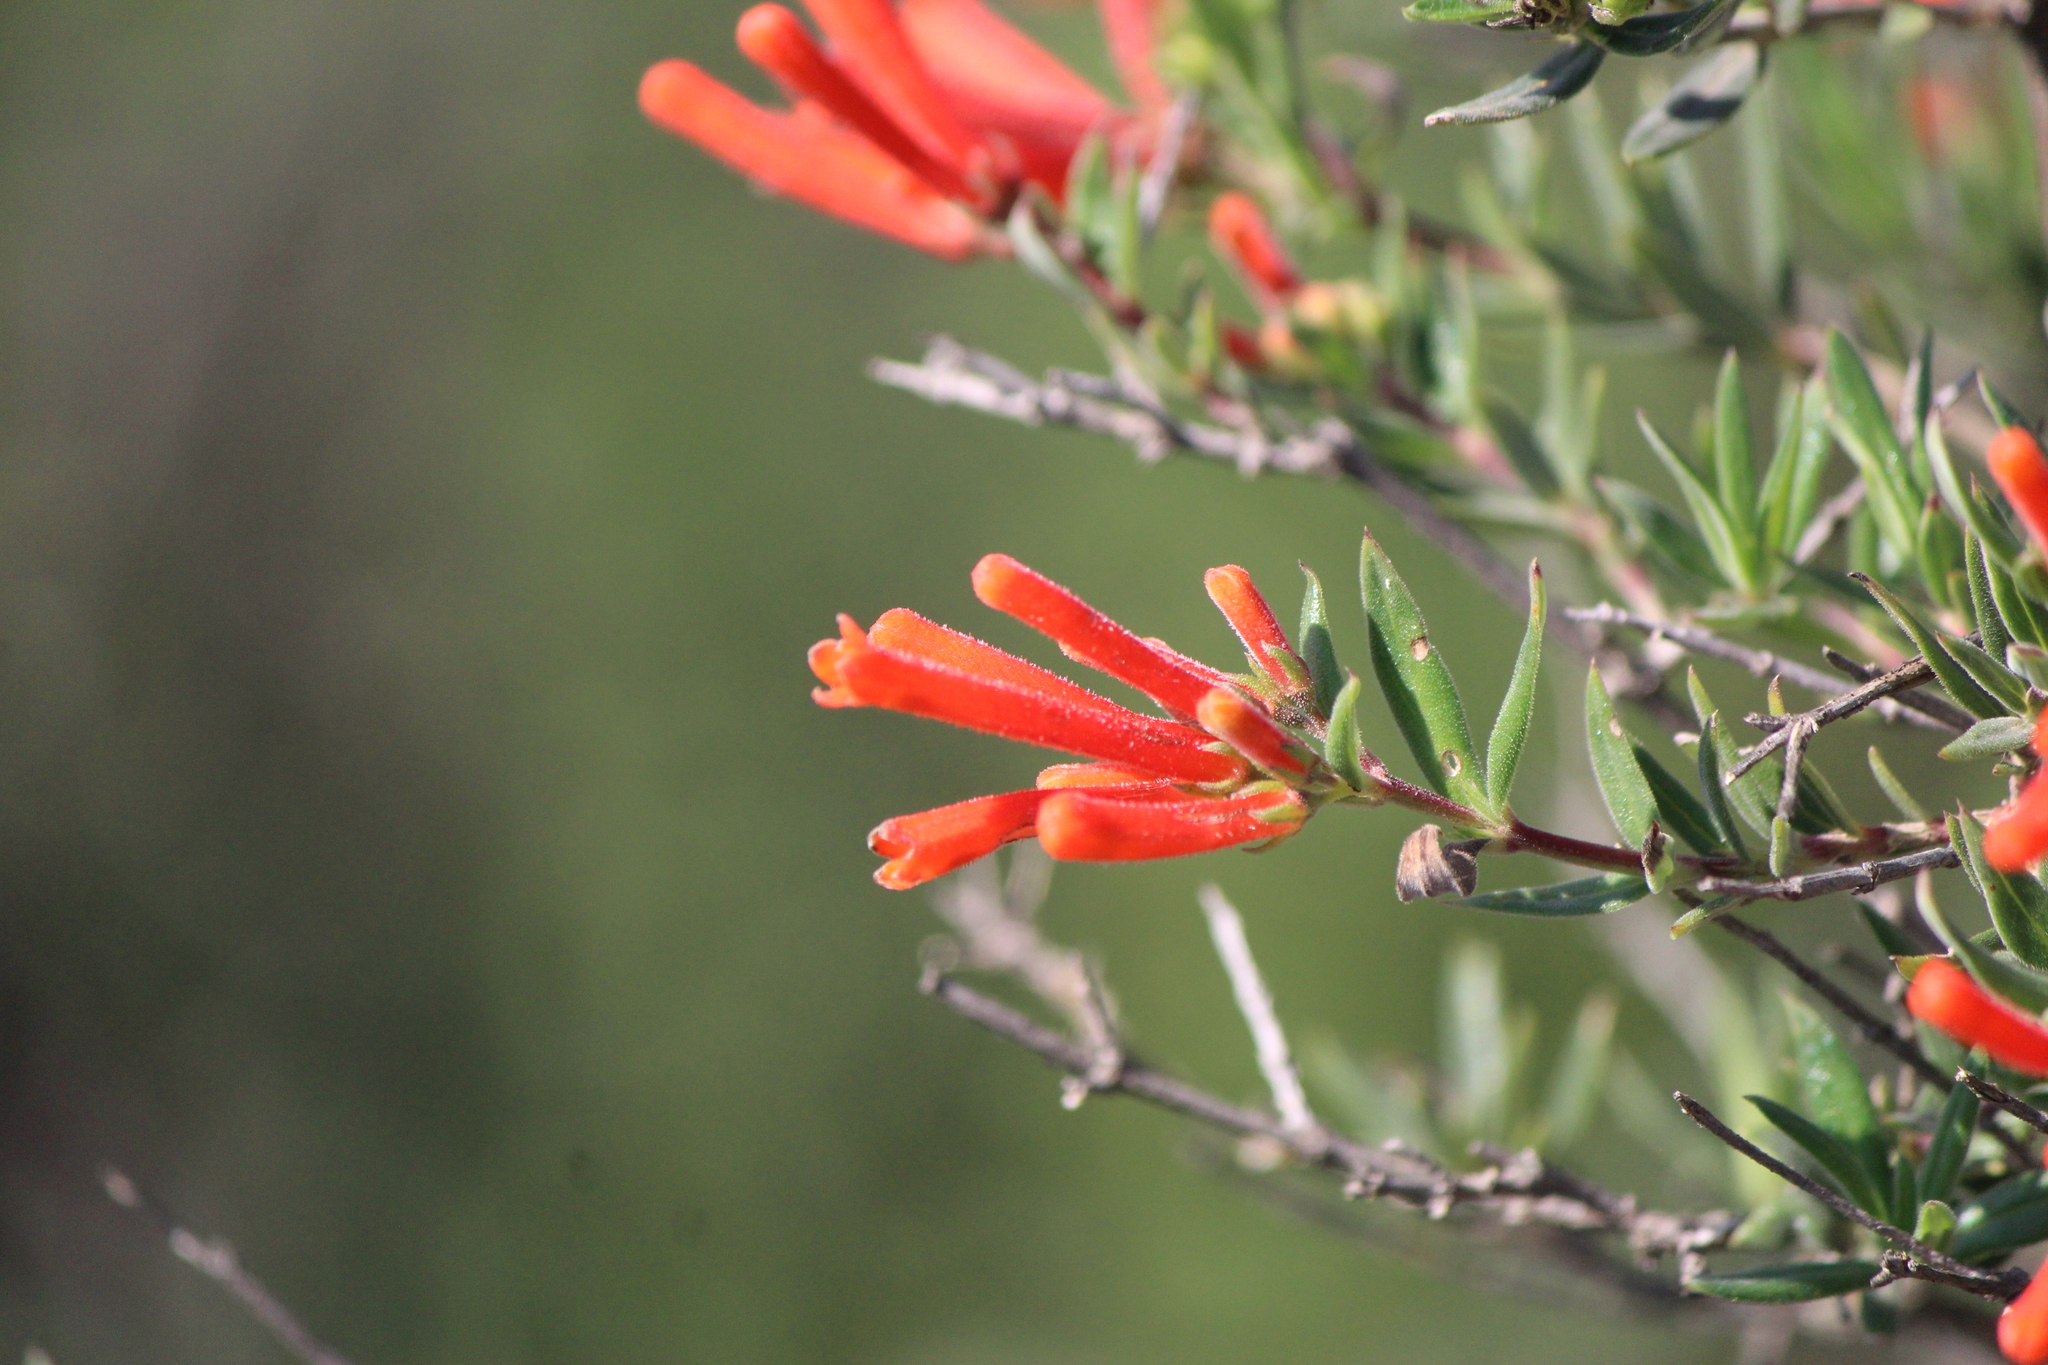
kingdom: Plantae
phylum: Tracheophyta
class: Magnoliopsida
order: Gentianales
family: Rubiaceae
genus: Bouvardia
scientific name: Bouvardia ternifolia
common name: Scarlet bouvardia
